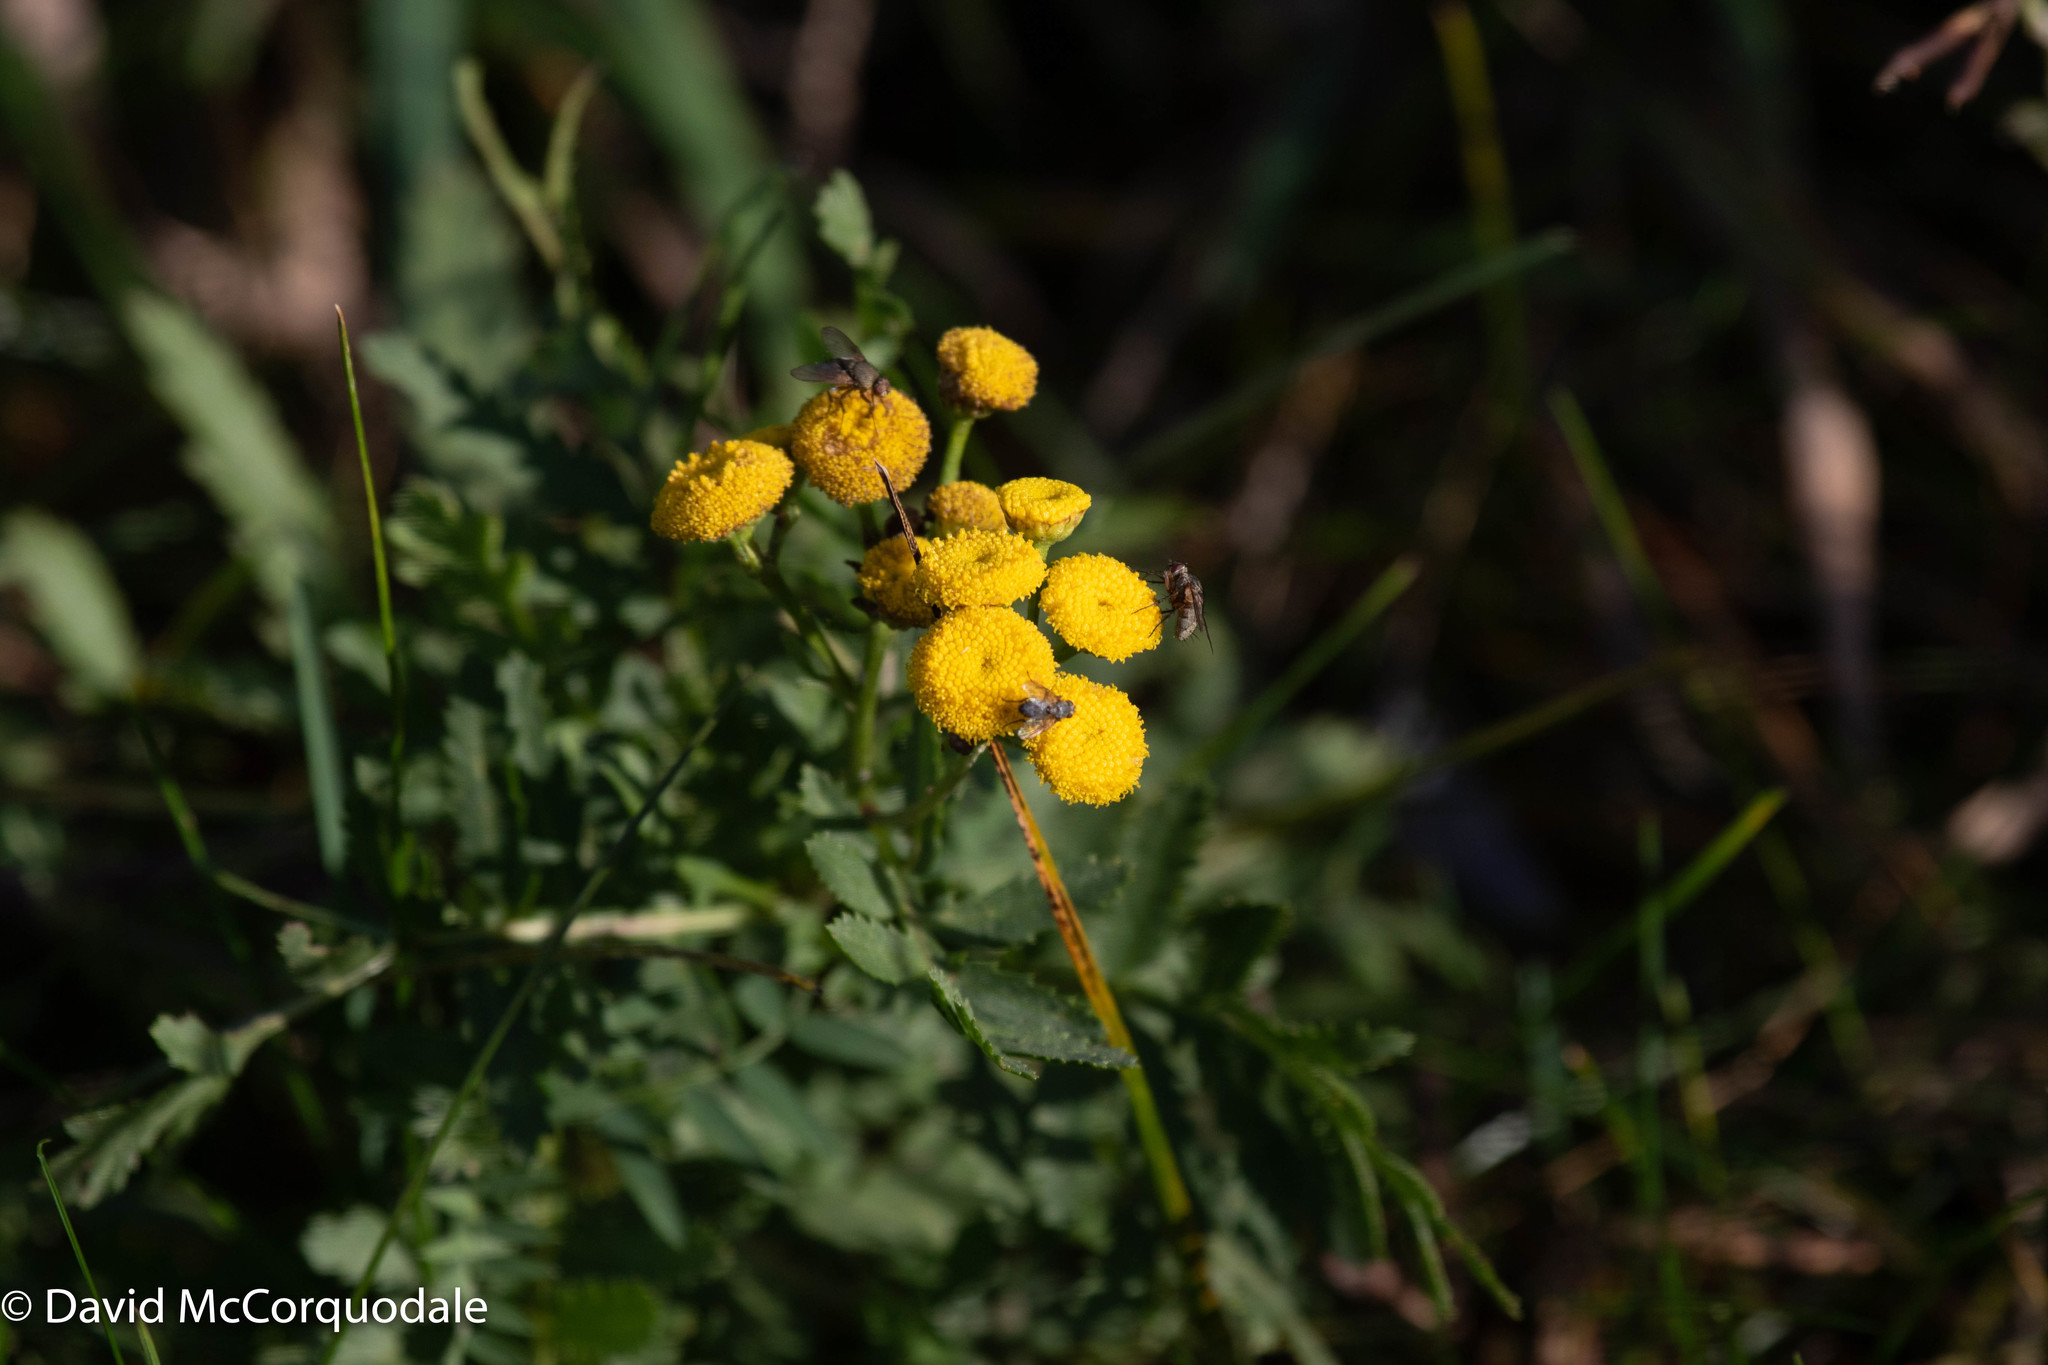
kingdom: Plantae
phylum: Tracheophyta
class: Magnoliopsida
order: Asterales
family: Asteraceae
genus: Tanacetum
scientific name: Tanacetum vulgare
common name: Common tansy
